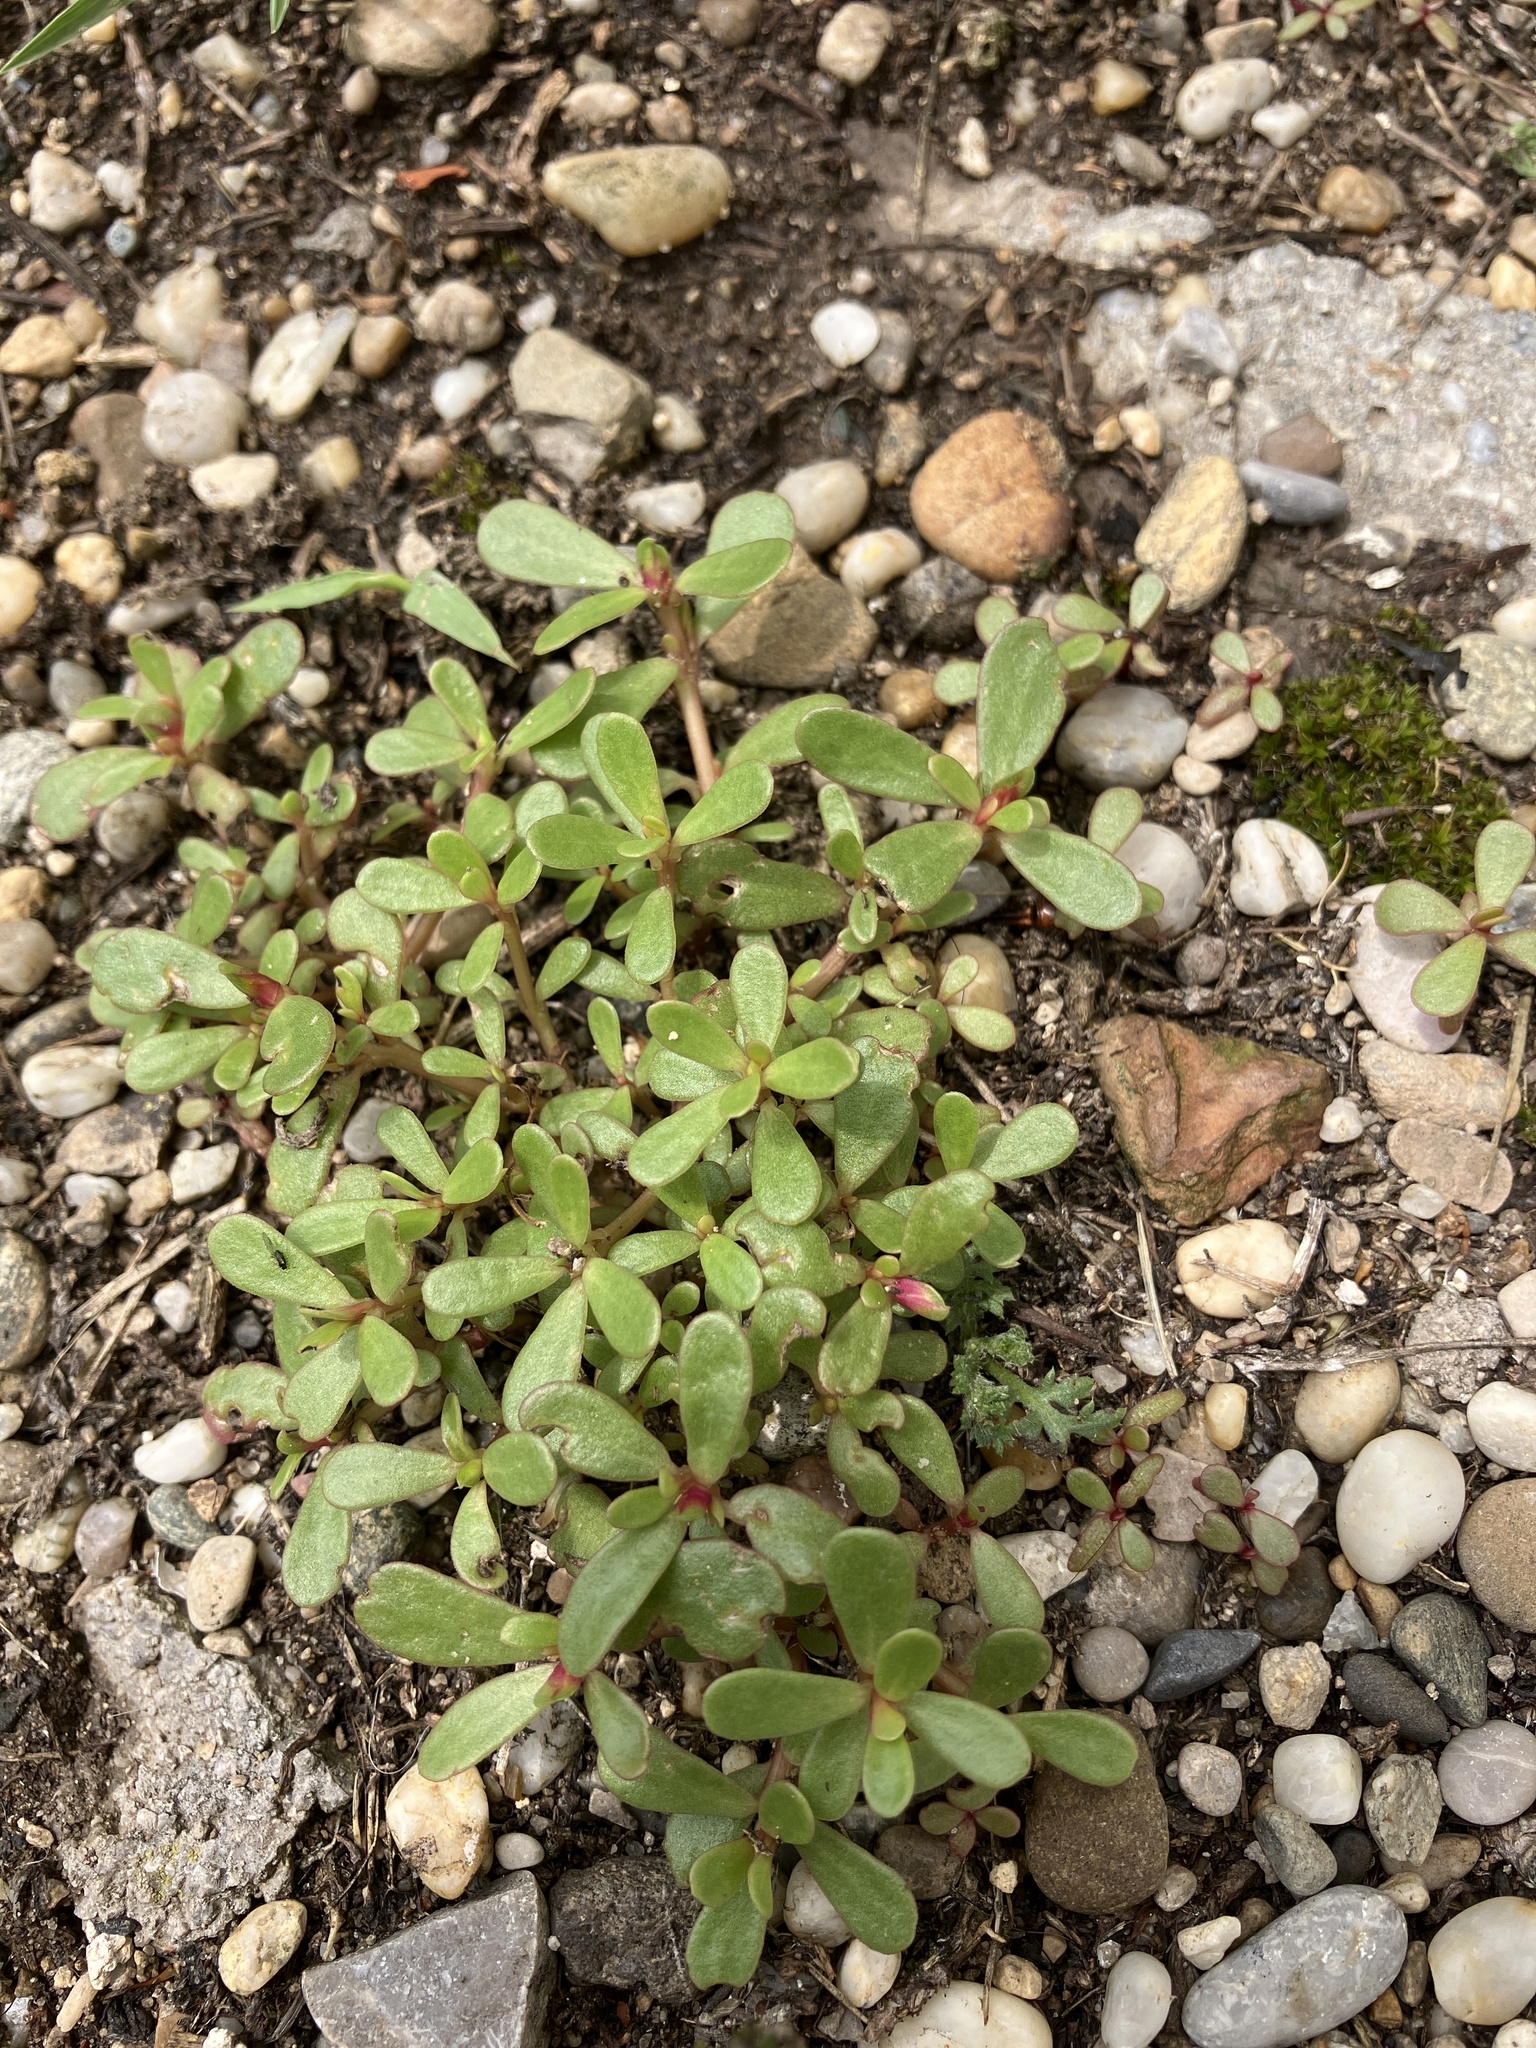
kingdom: Plantae
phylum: Tracheophyta
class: Magnoliopsida
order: Caryophyllales
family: Portulacaceae
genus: Portulaca
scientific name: Portulaca oleracea
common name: Common purslane
